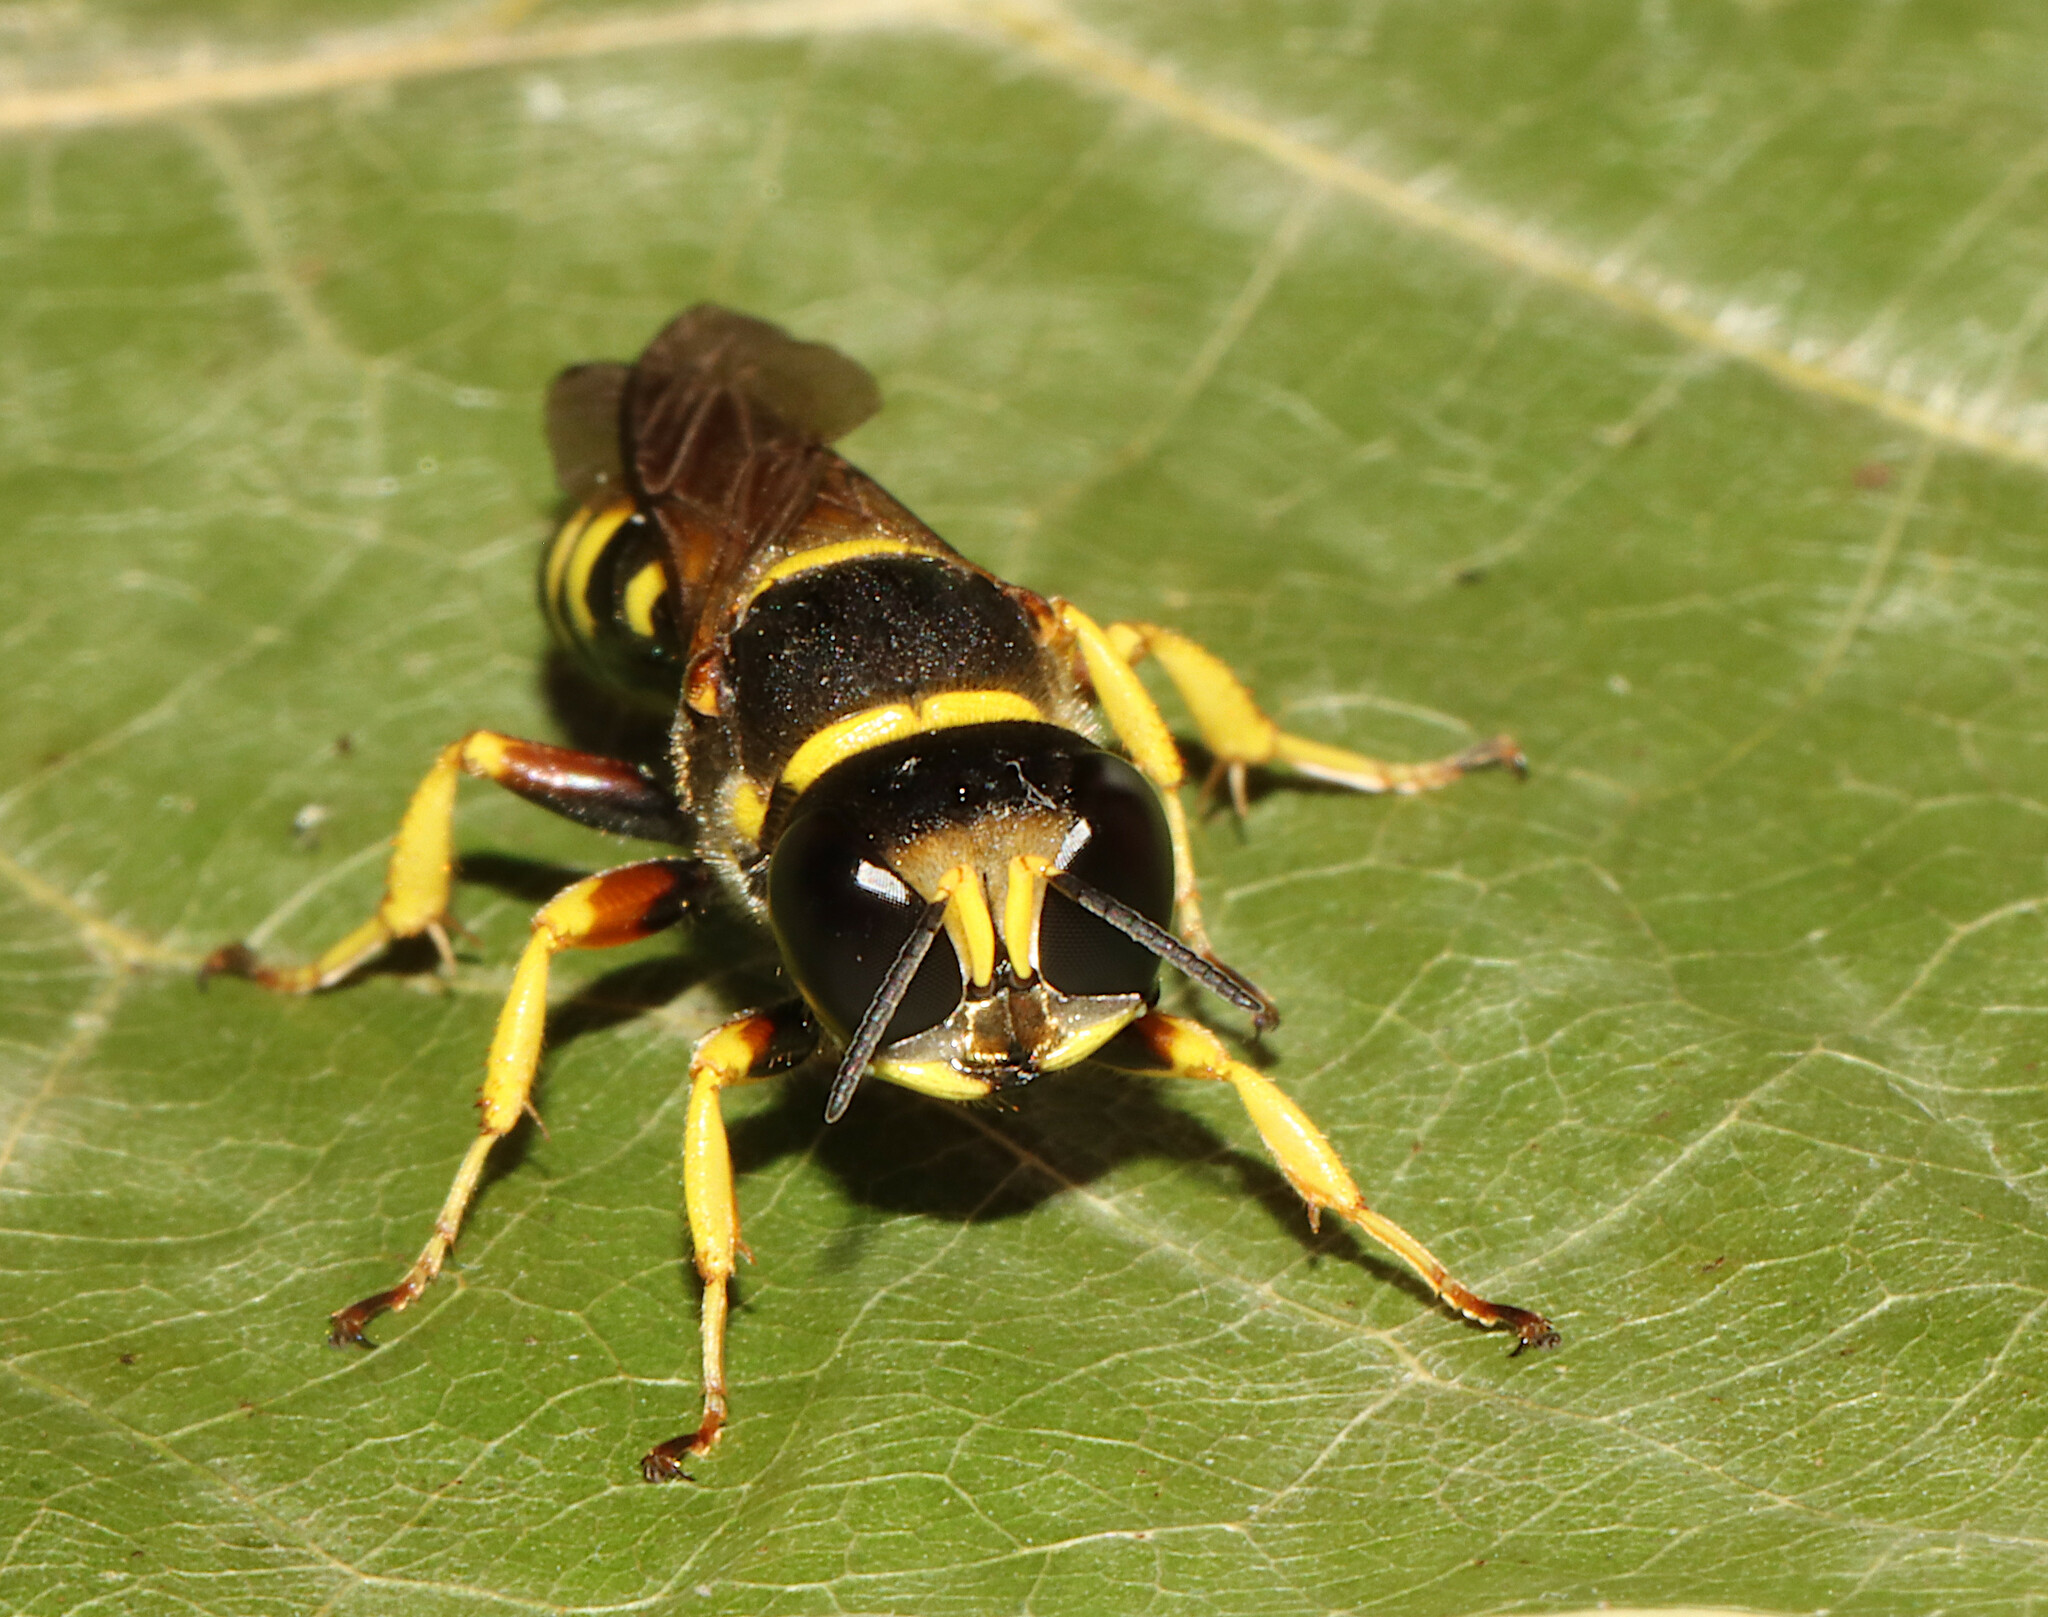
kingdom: Animalia
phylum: Arthropoda
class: Insecta
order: Hymenoptera
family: Crabronidae
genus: Ectemnius
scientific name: Ectemnius decemmaculatus
